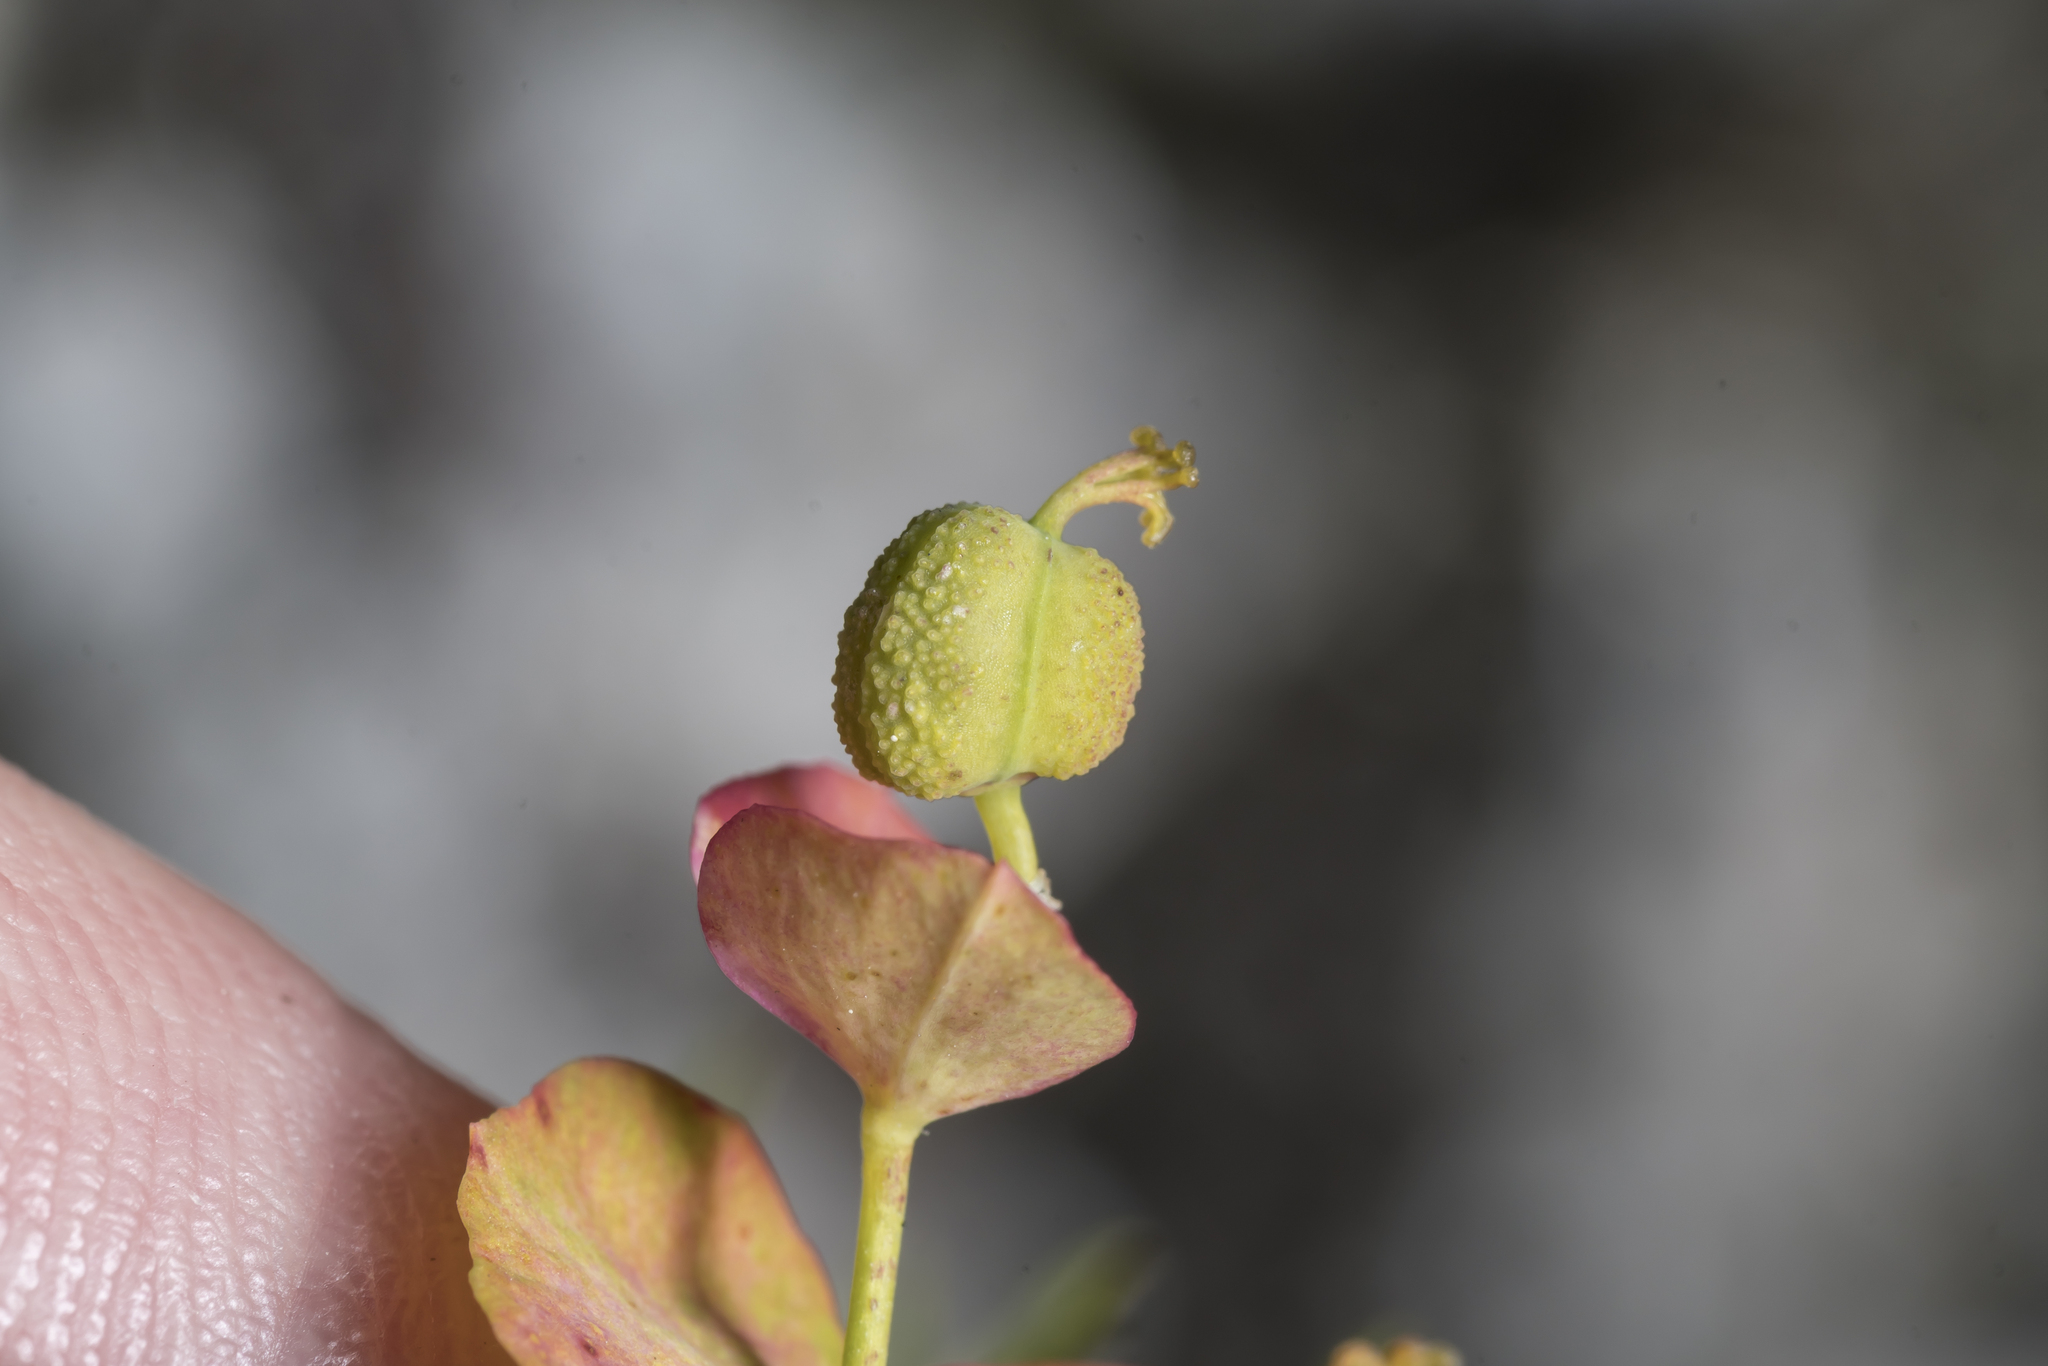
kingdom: Plantae
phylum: Tracheophyta
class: Magnoliopsida
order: Malpighiales
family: Euphorbiaceae
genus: Euphorbia
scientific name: Euphorbia cyparissias
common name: Cypress spurge
